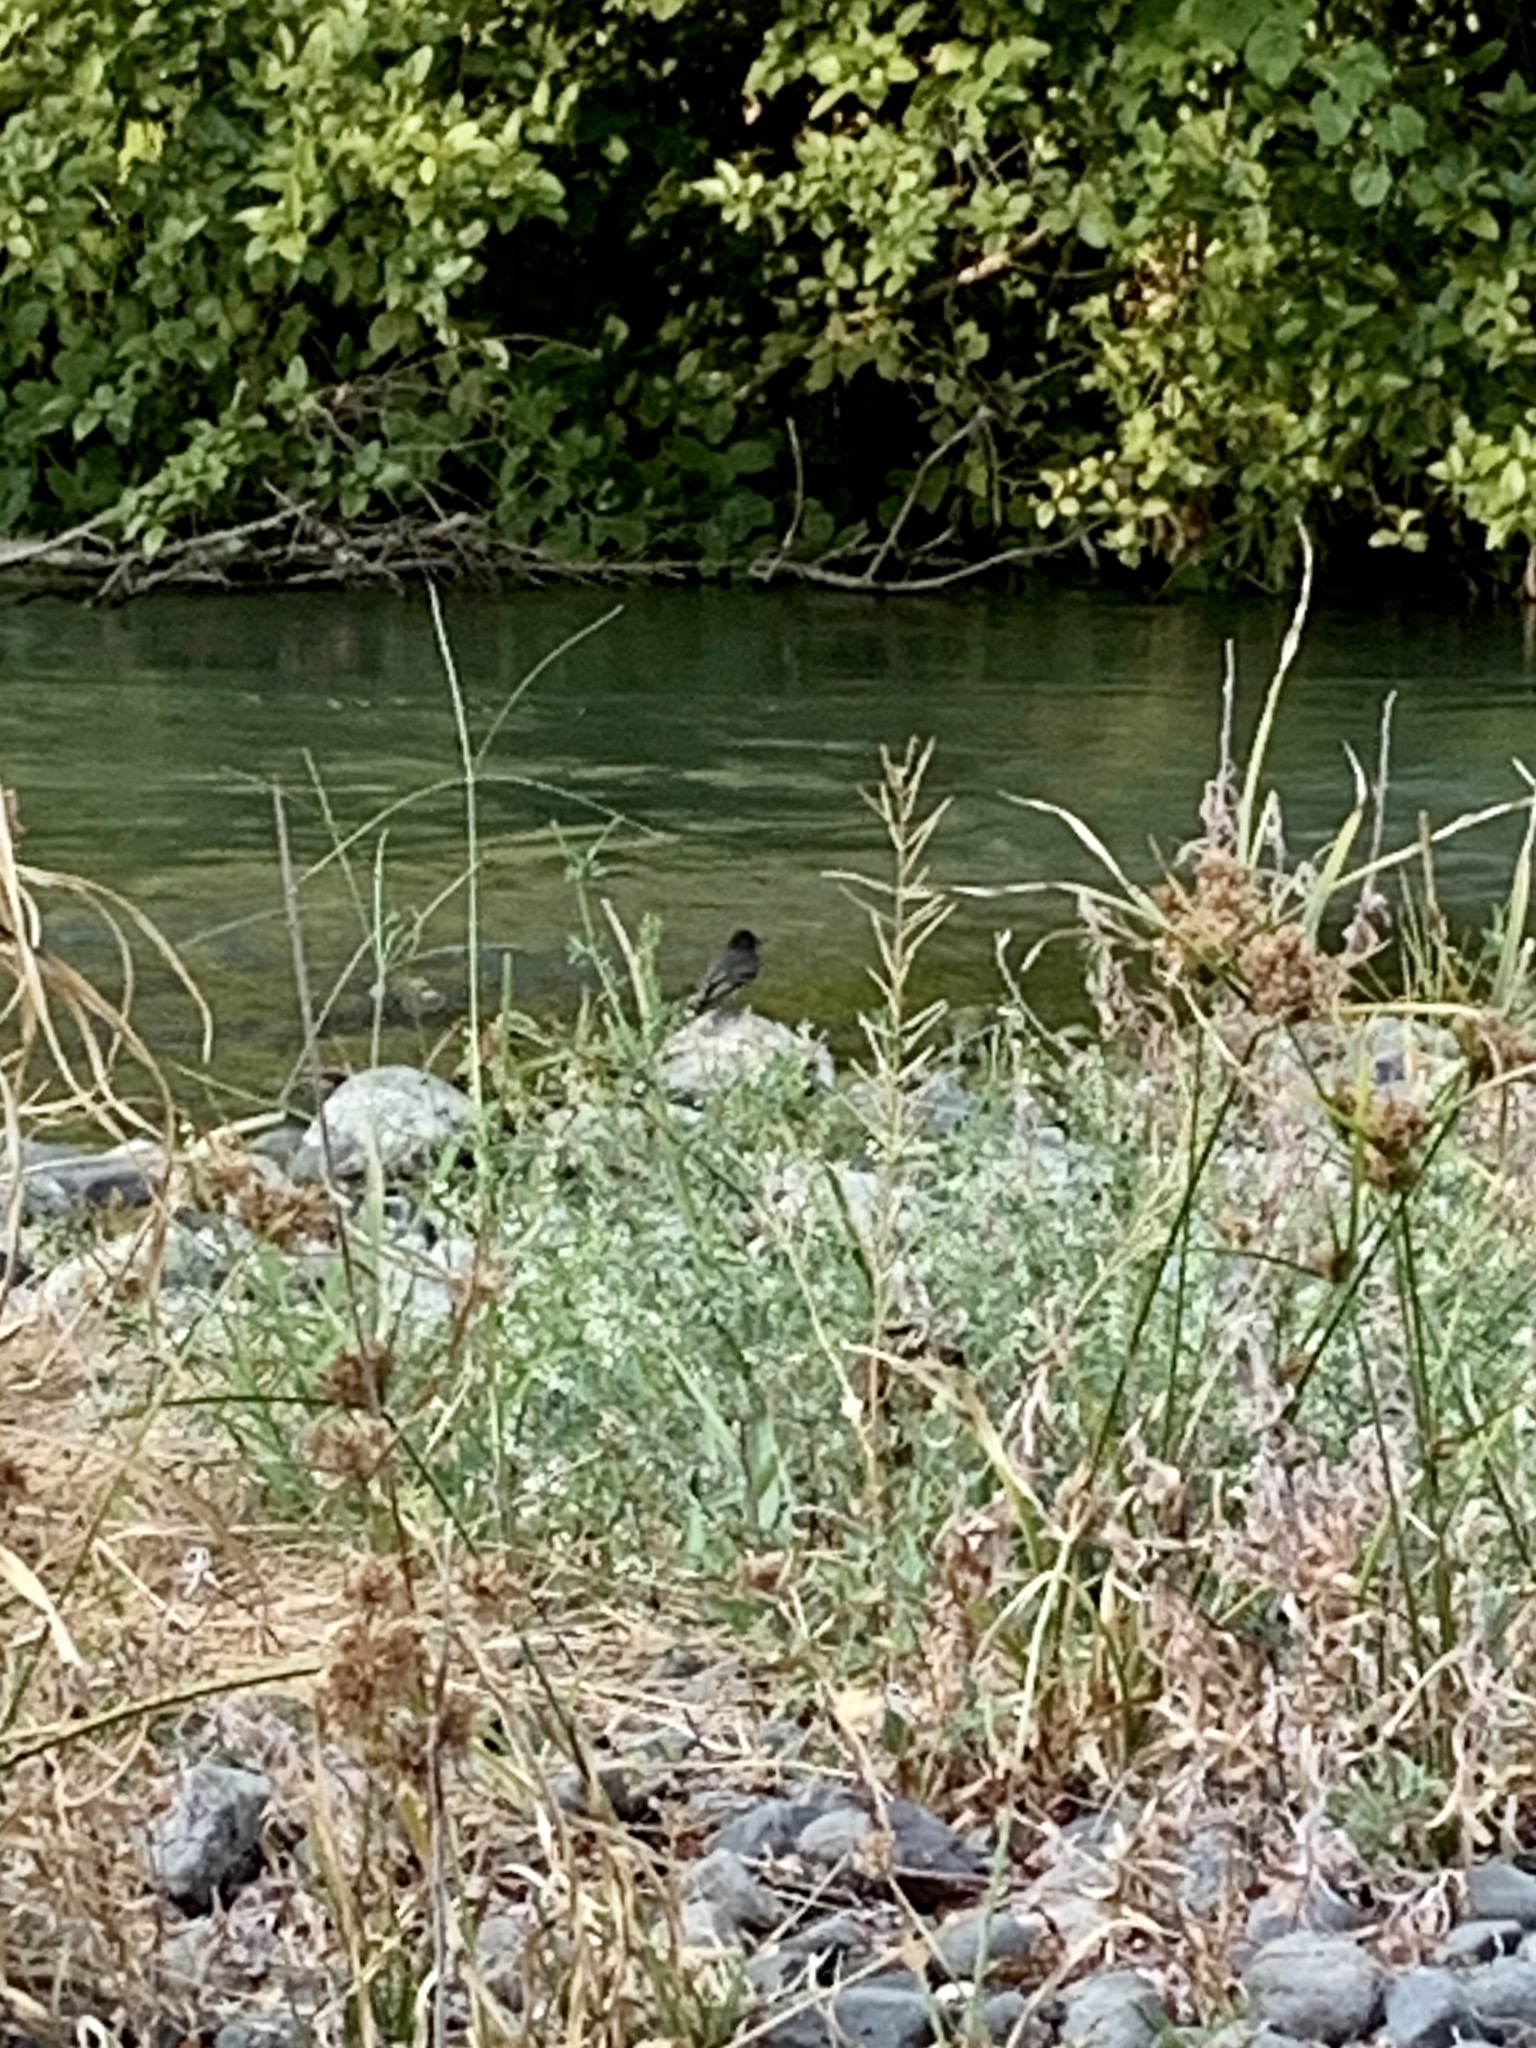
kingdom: Animalia
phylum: Chordata
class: Aves
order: Passeriformes
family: Tyrannidae
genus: Sayornis
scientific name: Sayornis nigricans
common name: Black phoebe
